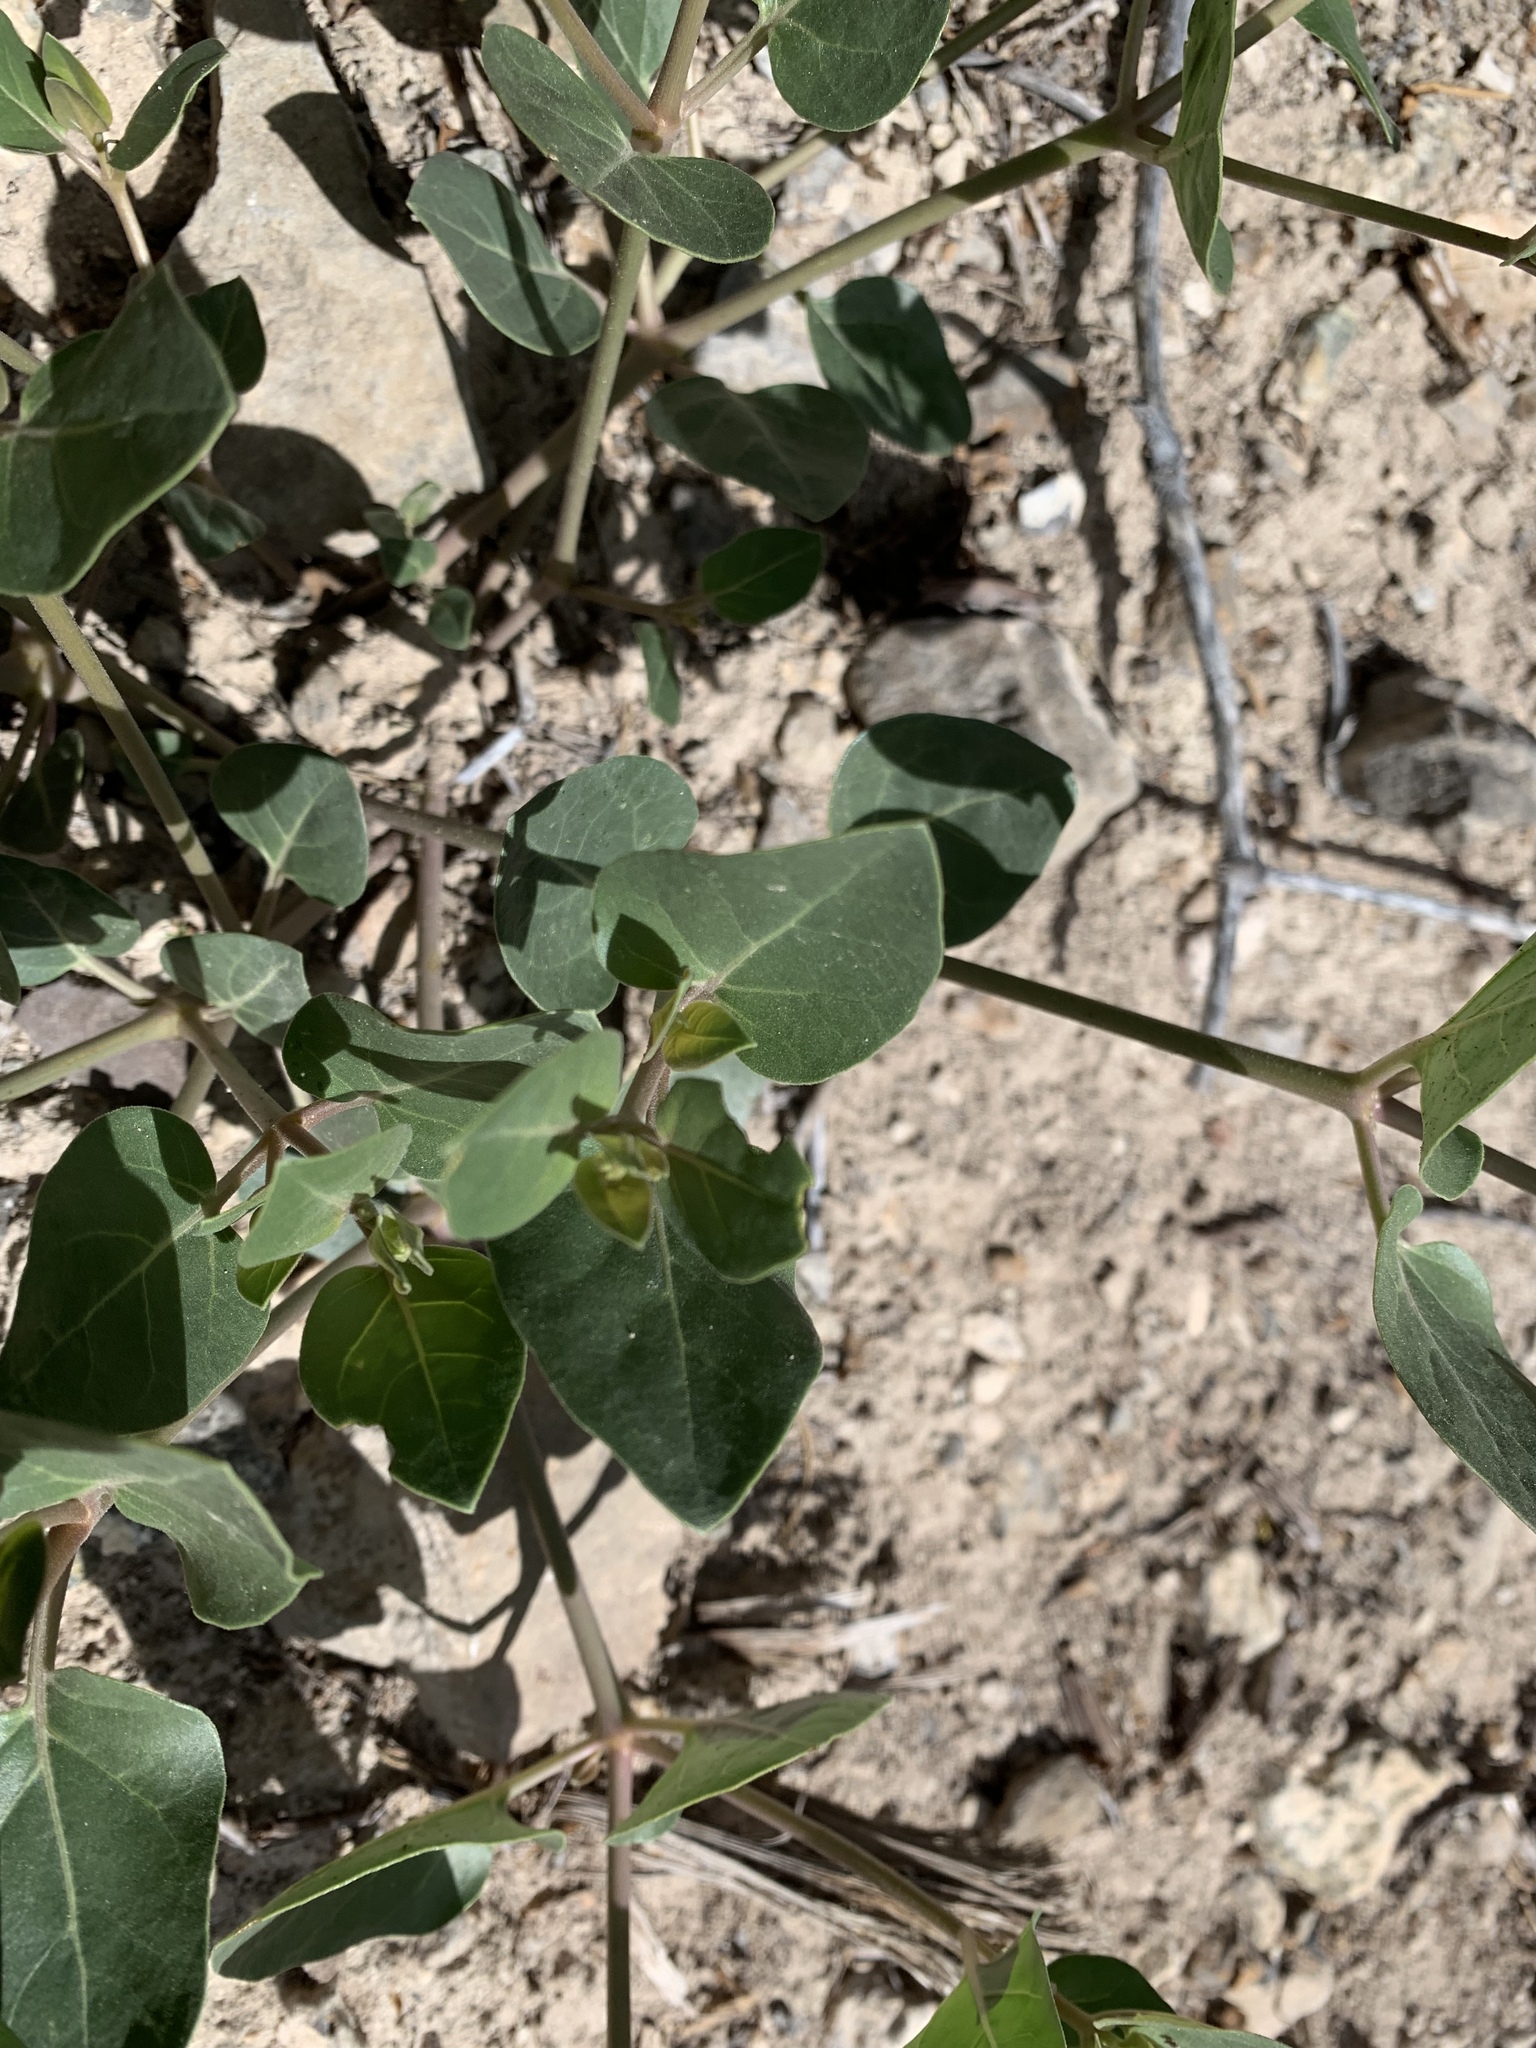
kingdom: Plantae
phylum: Tracheophyta
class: Magnoliopsida
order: Caryophyllales
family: Nyctaginaceae
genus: Mirabilis
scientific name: Mirabilis multiflora
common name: Froebel's four-o'clock
